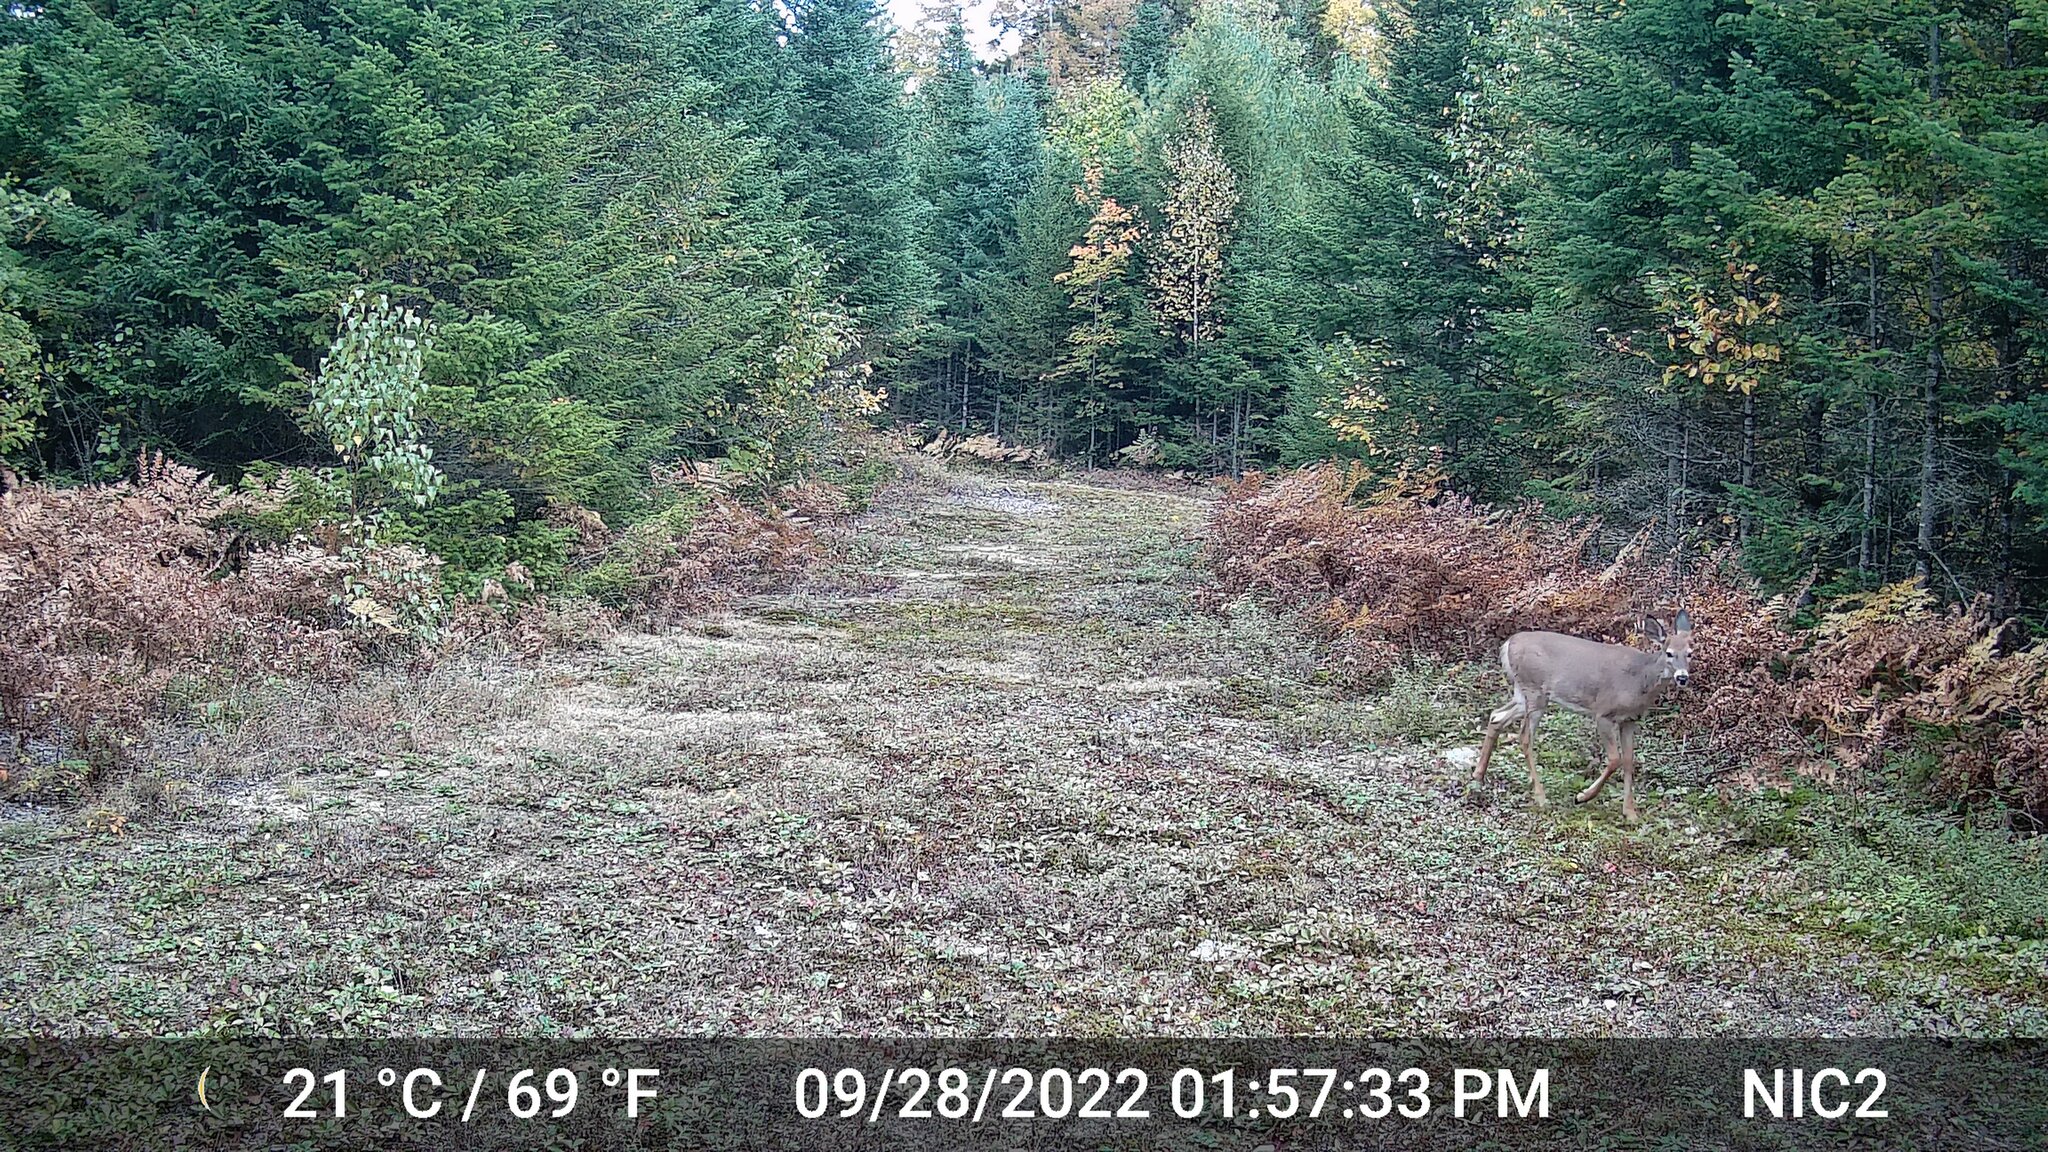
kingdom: Animalia
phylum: Chordata
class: Mammalia
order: Artiodactyla
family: Cervidae
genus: Odocoileus
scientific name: Odocoileus virginianus
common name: White-tailed deer
